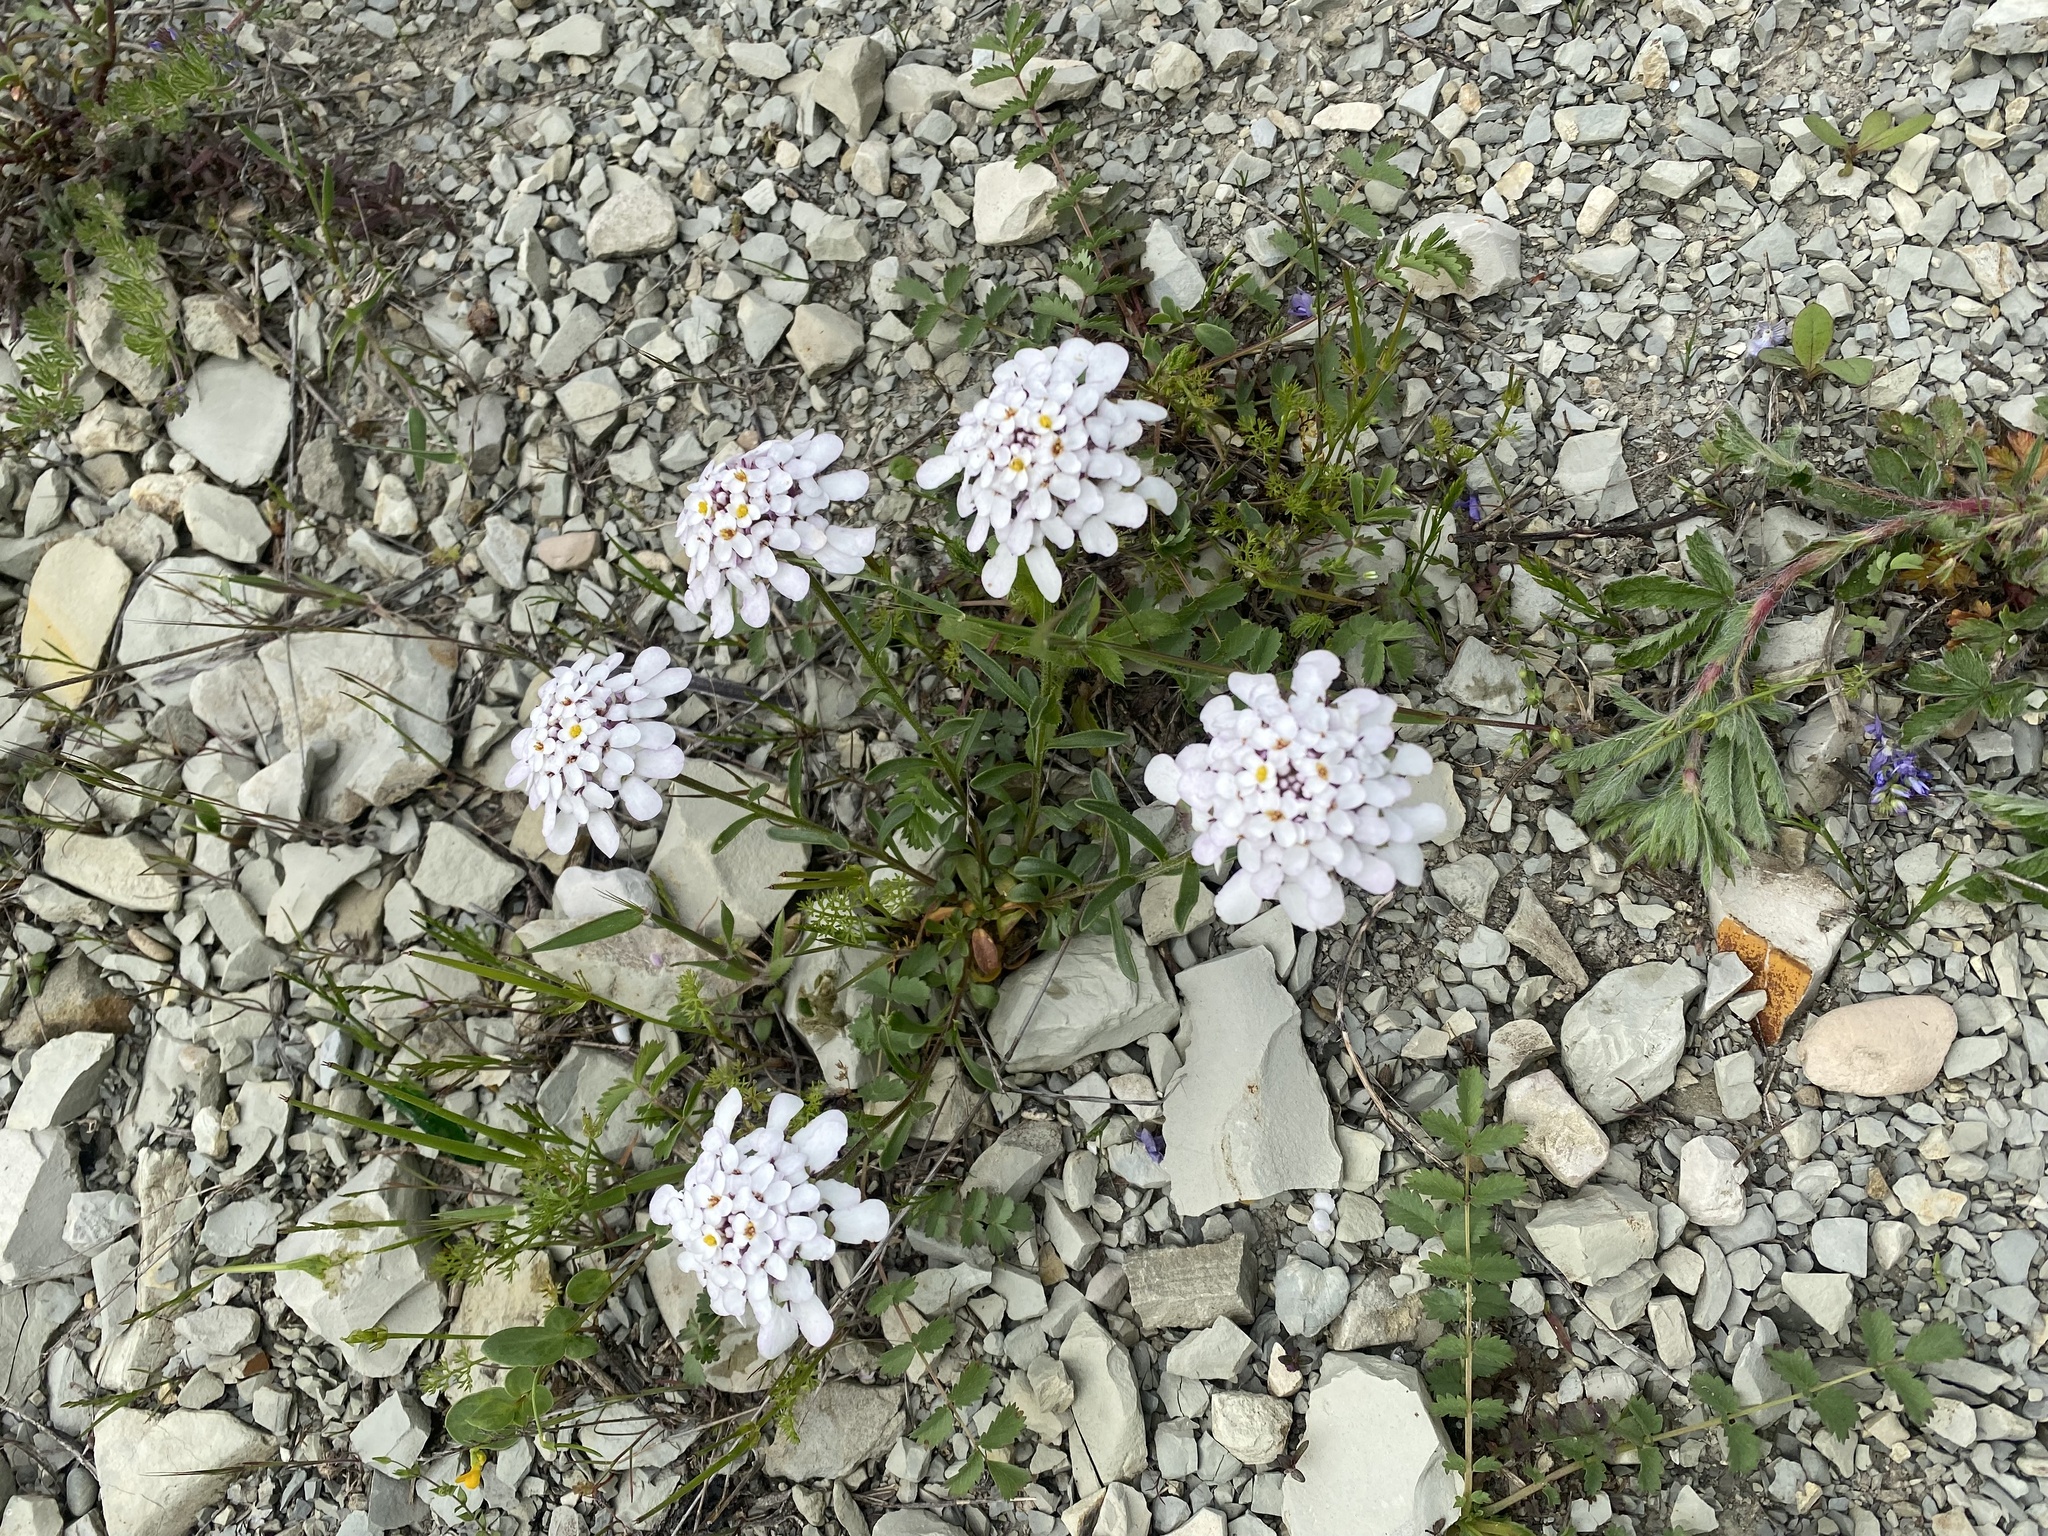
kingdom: Plantae
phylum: Tracheophyta
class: Magnoliopsida
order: Brassicales
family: Brassicaceae
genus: Iberis
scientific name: Iberis simplex
